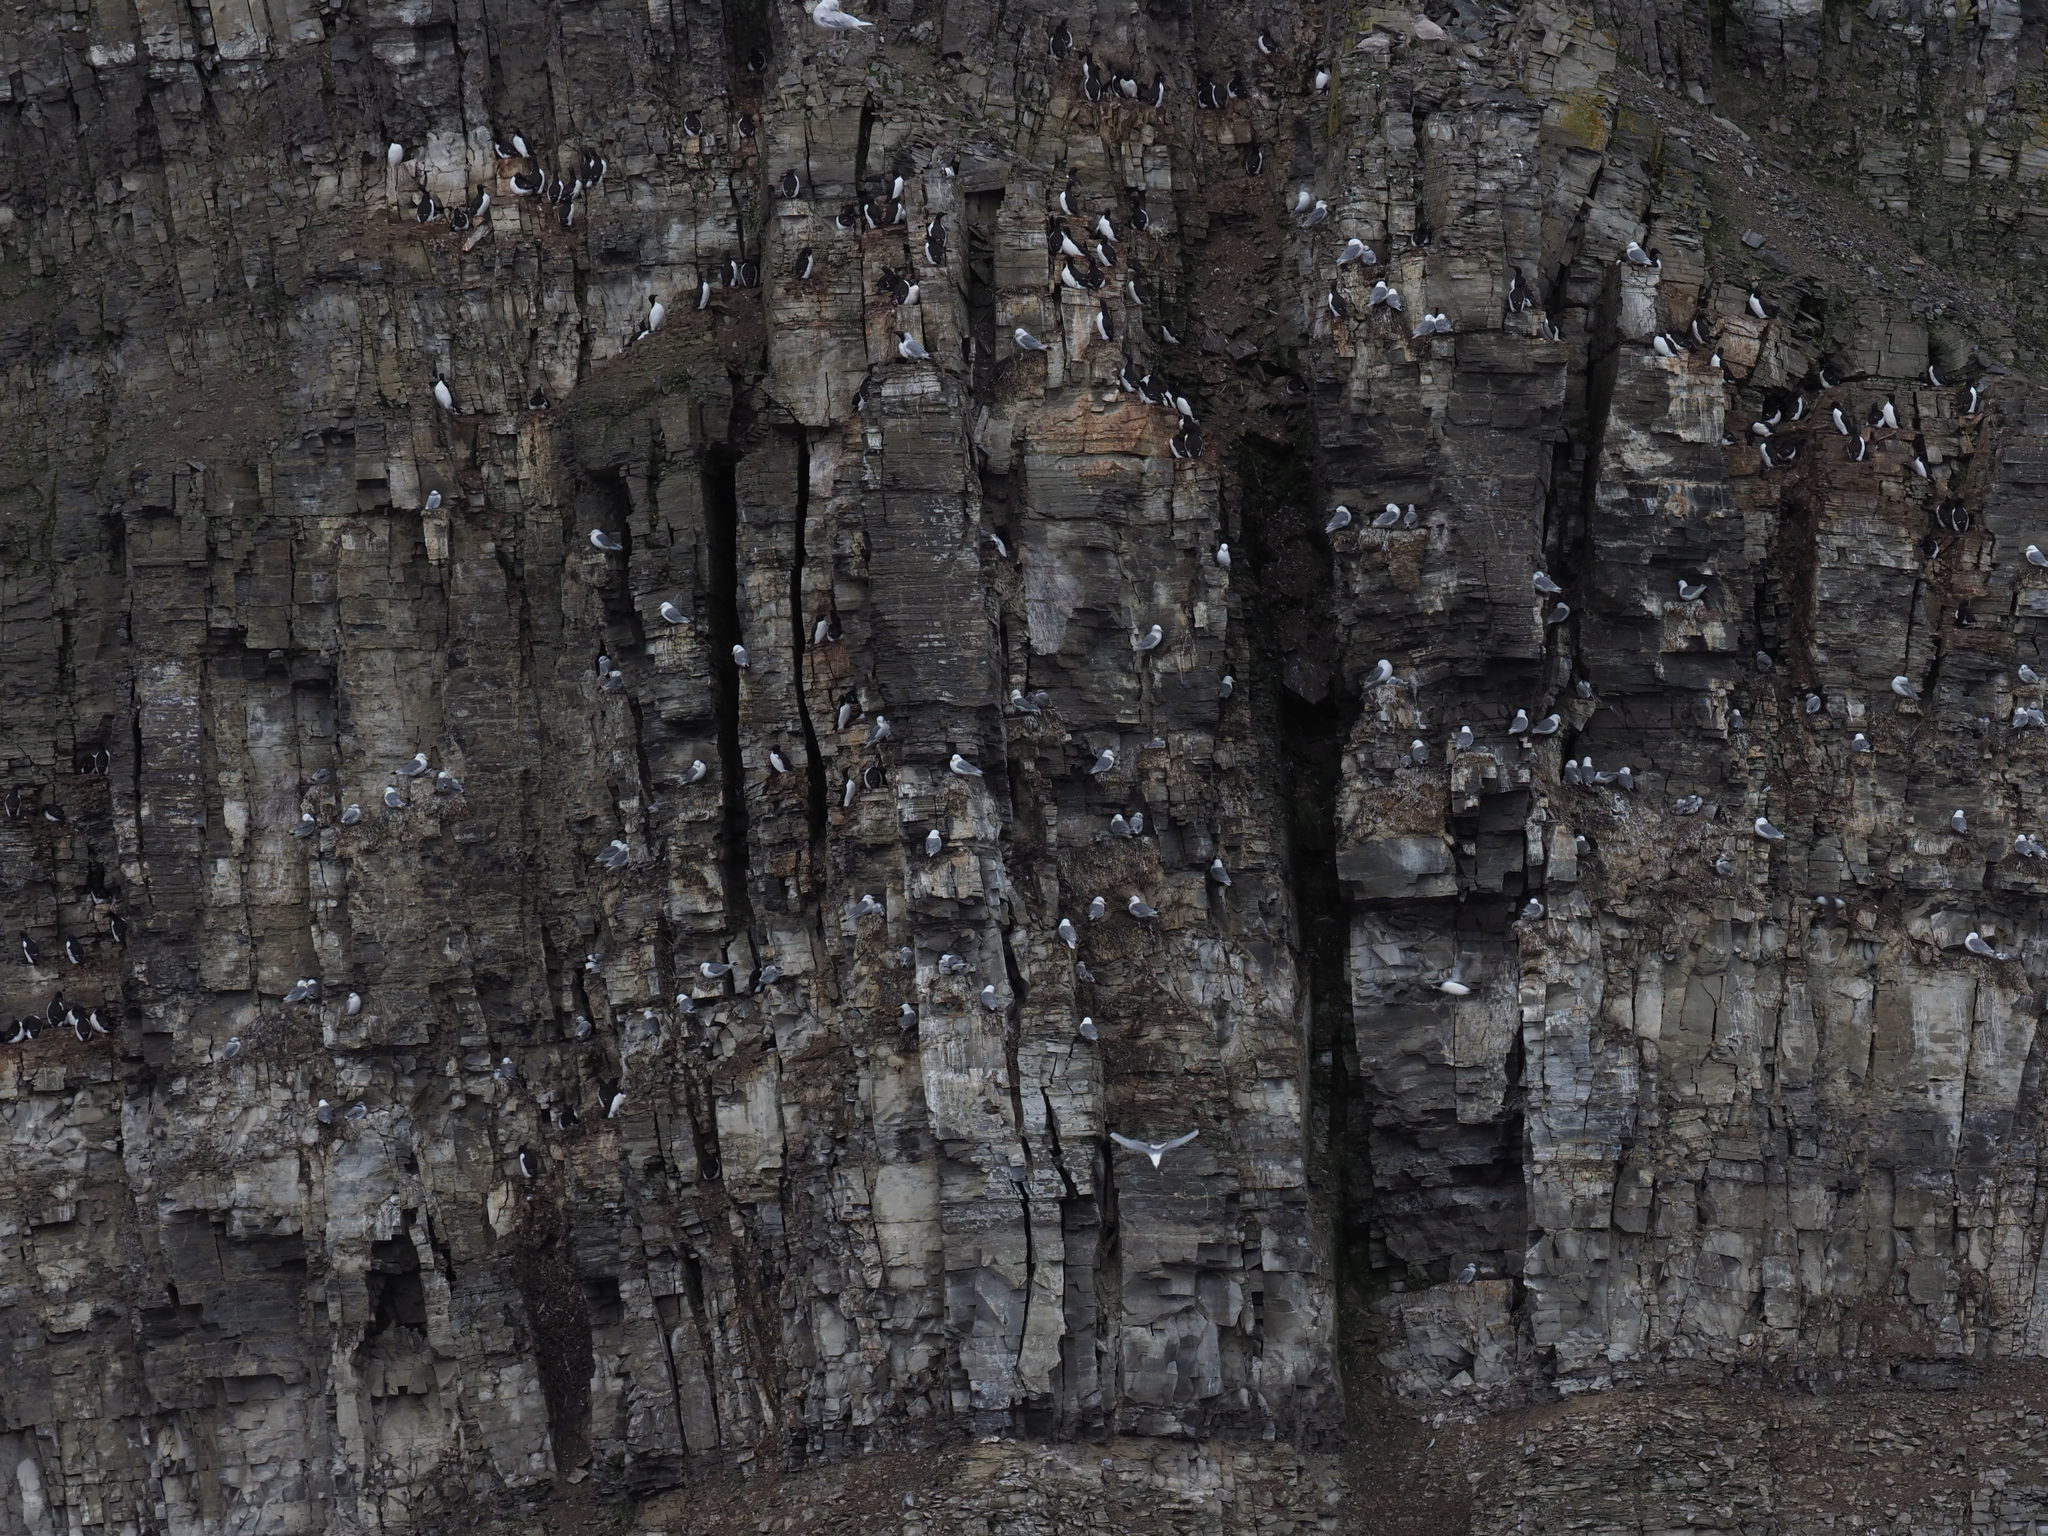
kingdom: Animalia
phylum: Chordata
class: Aves
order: Charadriiformes
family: Alcidae
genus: Uria
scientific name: Uria lomvia
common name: Thick-billed murre
